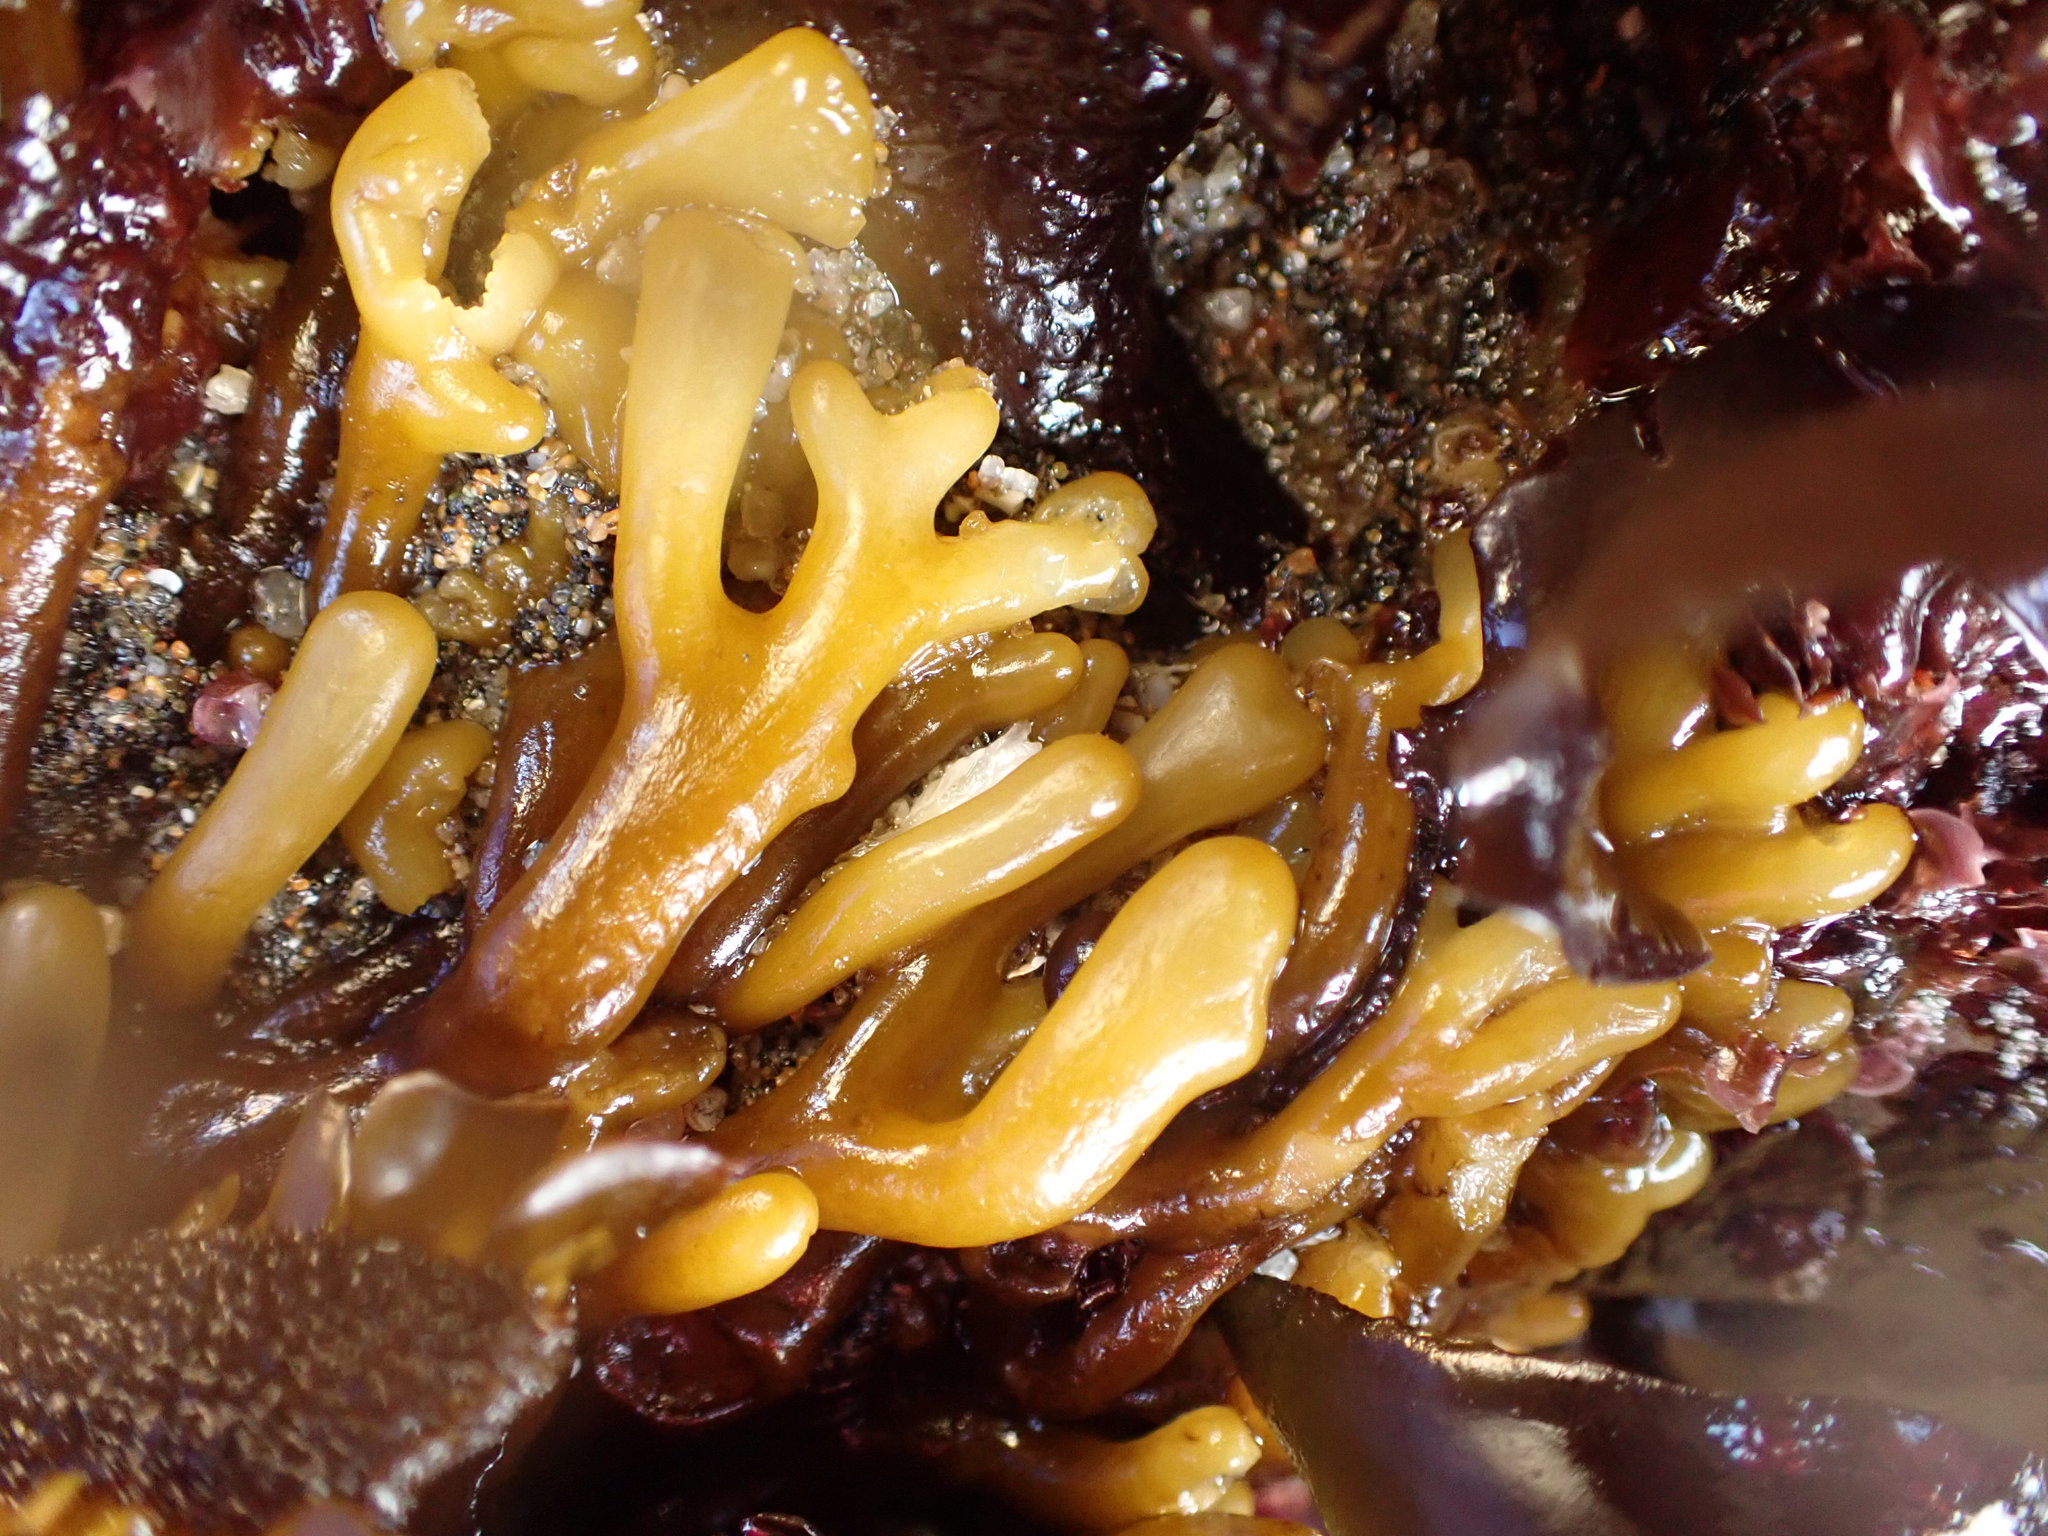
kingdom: Chromista
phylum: Ochrophyta
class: Phaeophyceae
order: Laminariales
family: Lessoniaceae
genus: Egregia
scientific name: Egregia menziesii
